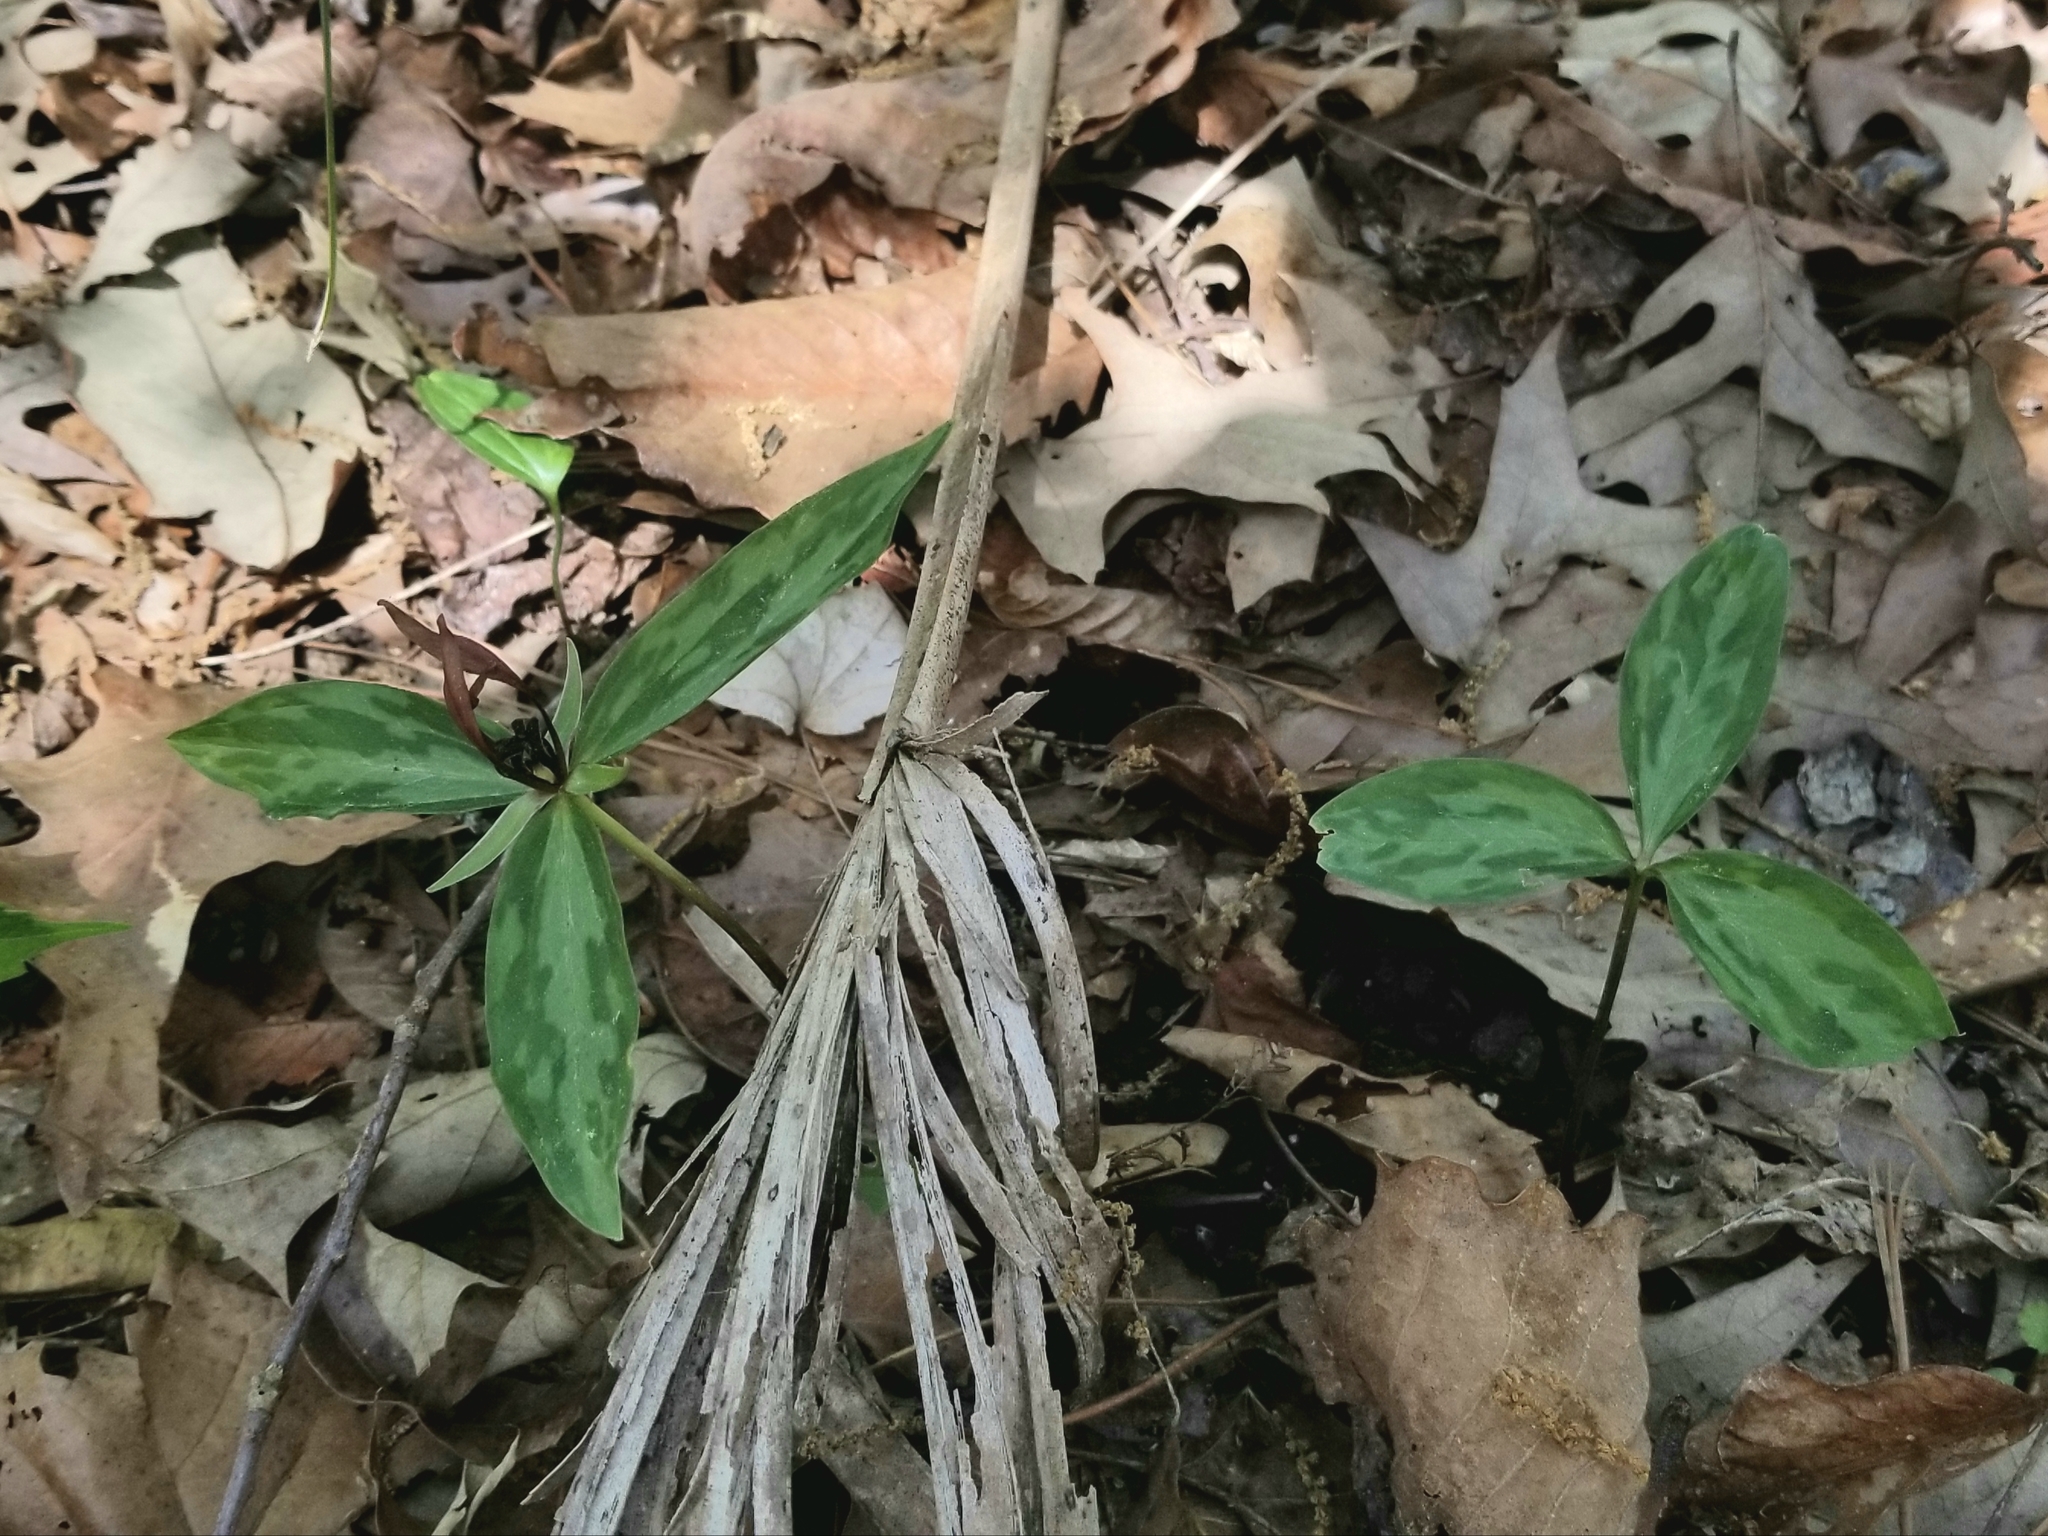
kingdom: Plantae
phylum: Tracheophyta
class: Liliopsida
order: Liliales
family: Melanthiaceae
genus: Trillium
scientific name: Trillium lancifolium
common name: Lance-leaved trillium
